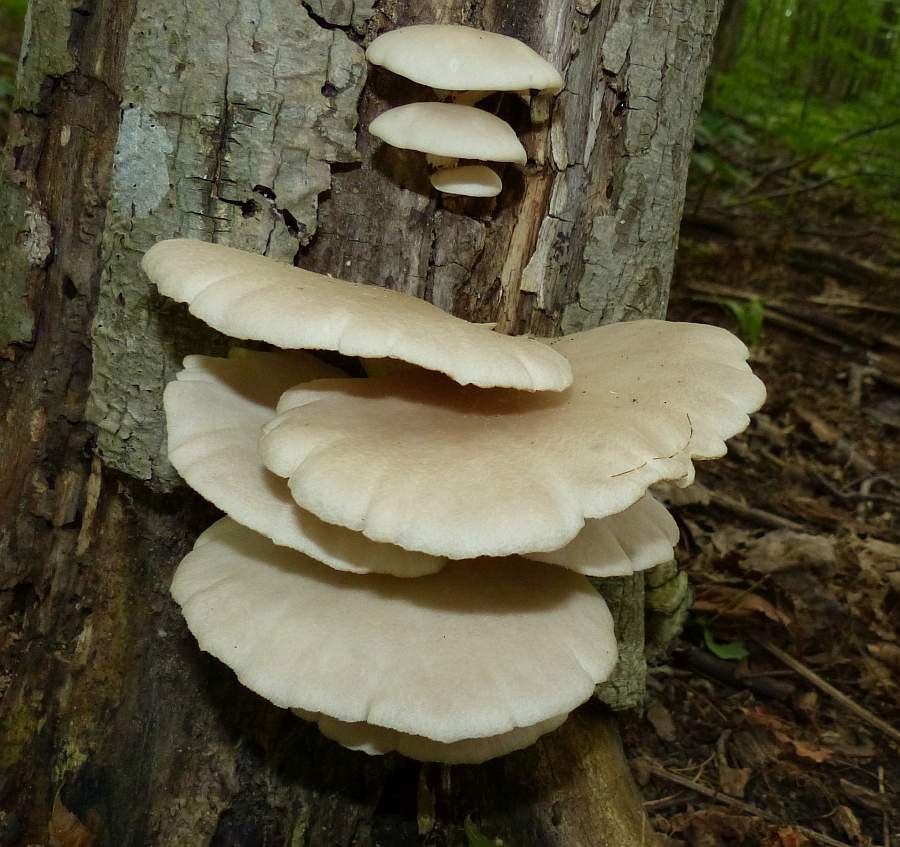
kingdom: Fungi
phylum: Basidiomycota
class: Agaricomycetes
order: Agaricales
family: Pleurotaceae
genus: Pleurotus
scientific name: Pleurotus ostreatus
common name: Oyster mushroom
